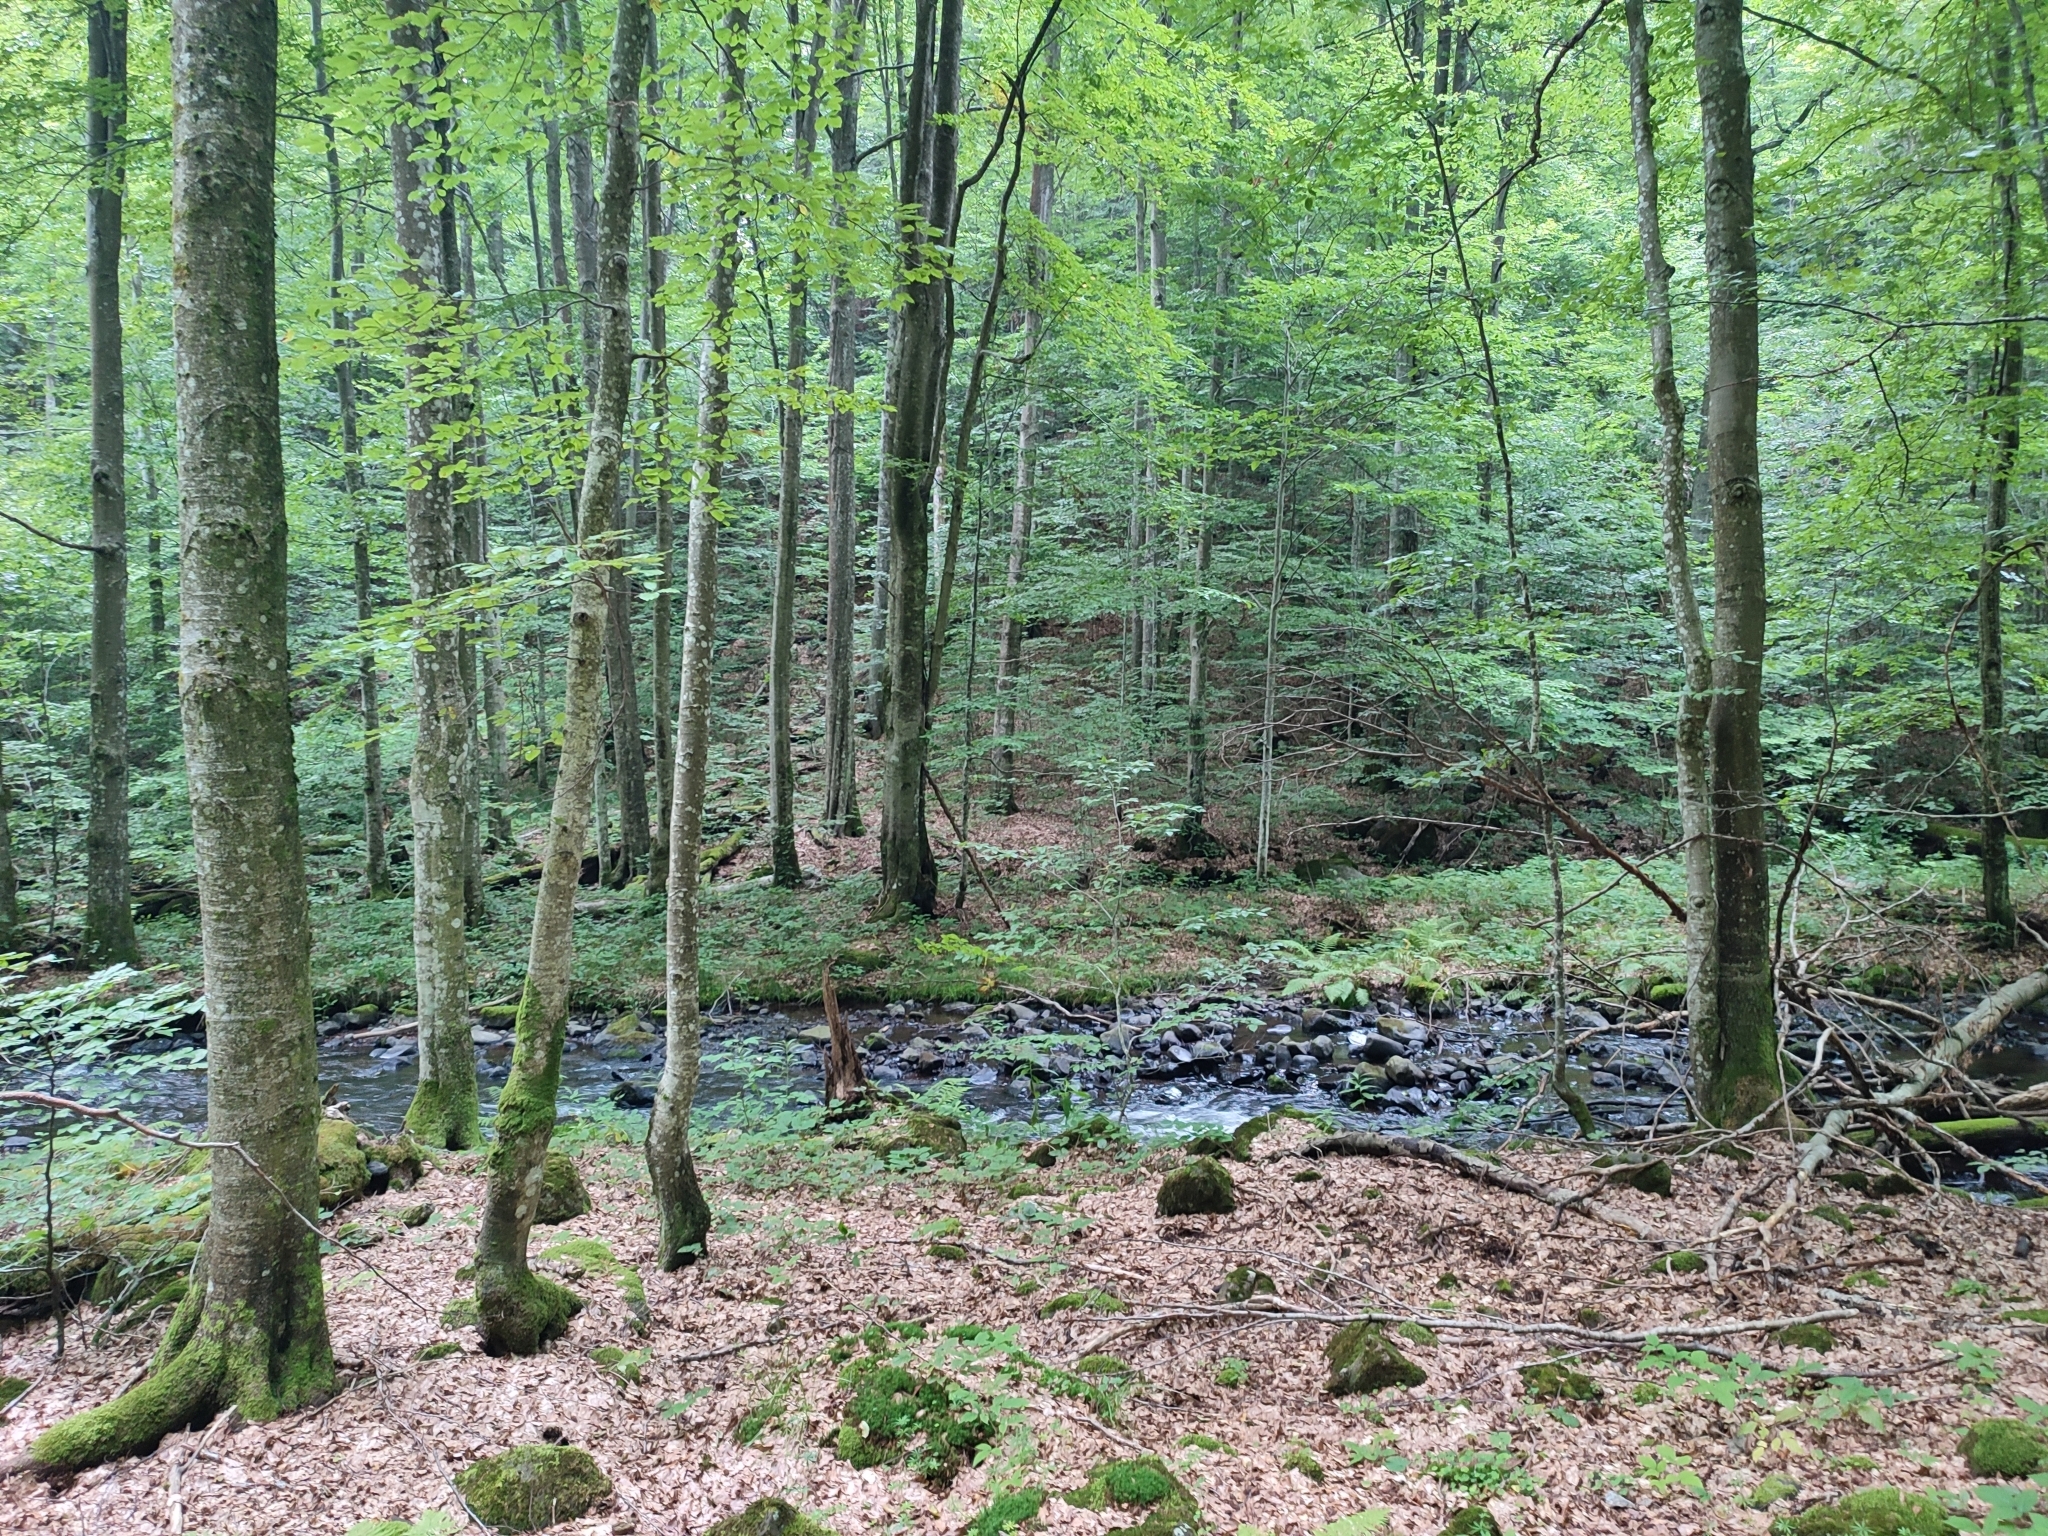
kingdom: Plantae
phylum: Tracheophyta
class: Magnoliopsida
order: Fagales
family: Fagaceae
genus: Fagus
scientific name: Fagus sylvatica
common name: Beech
